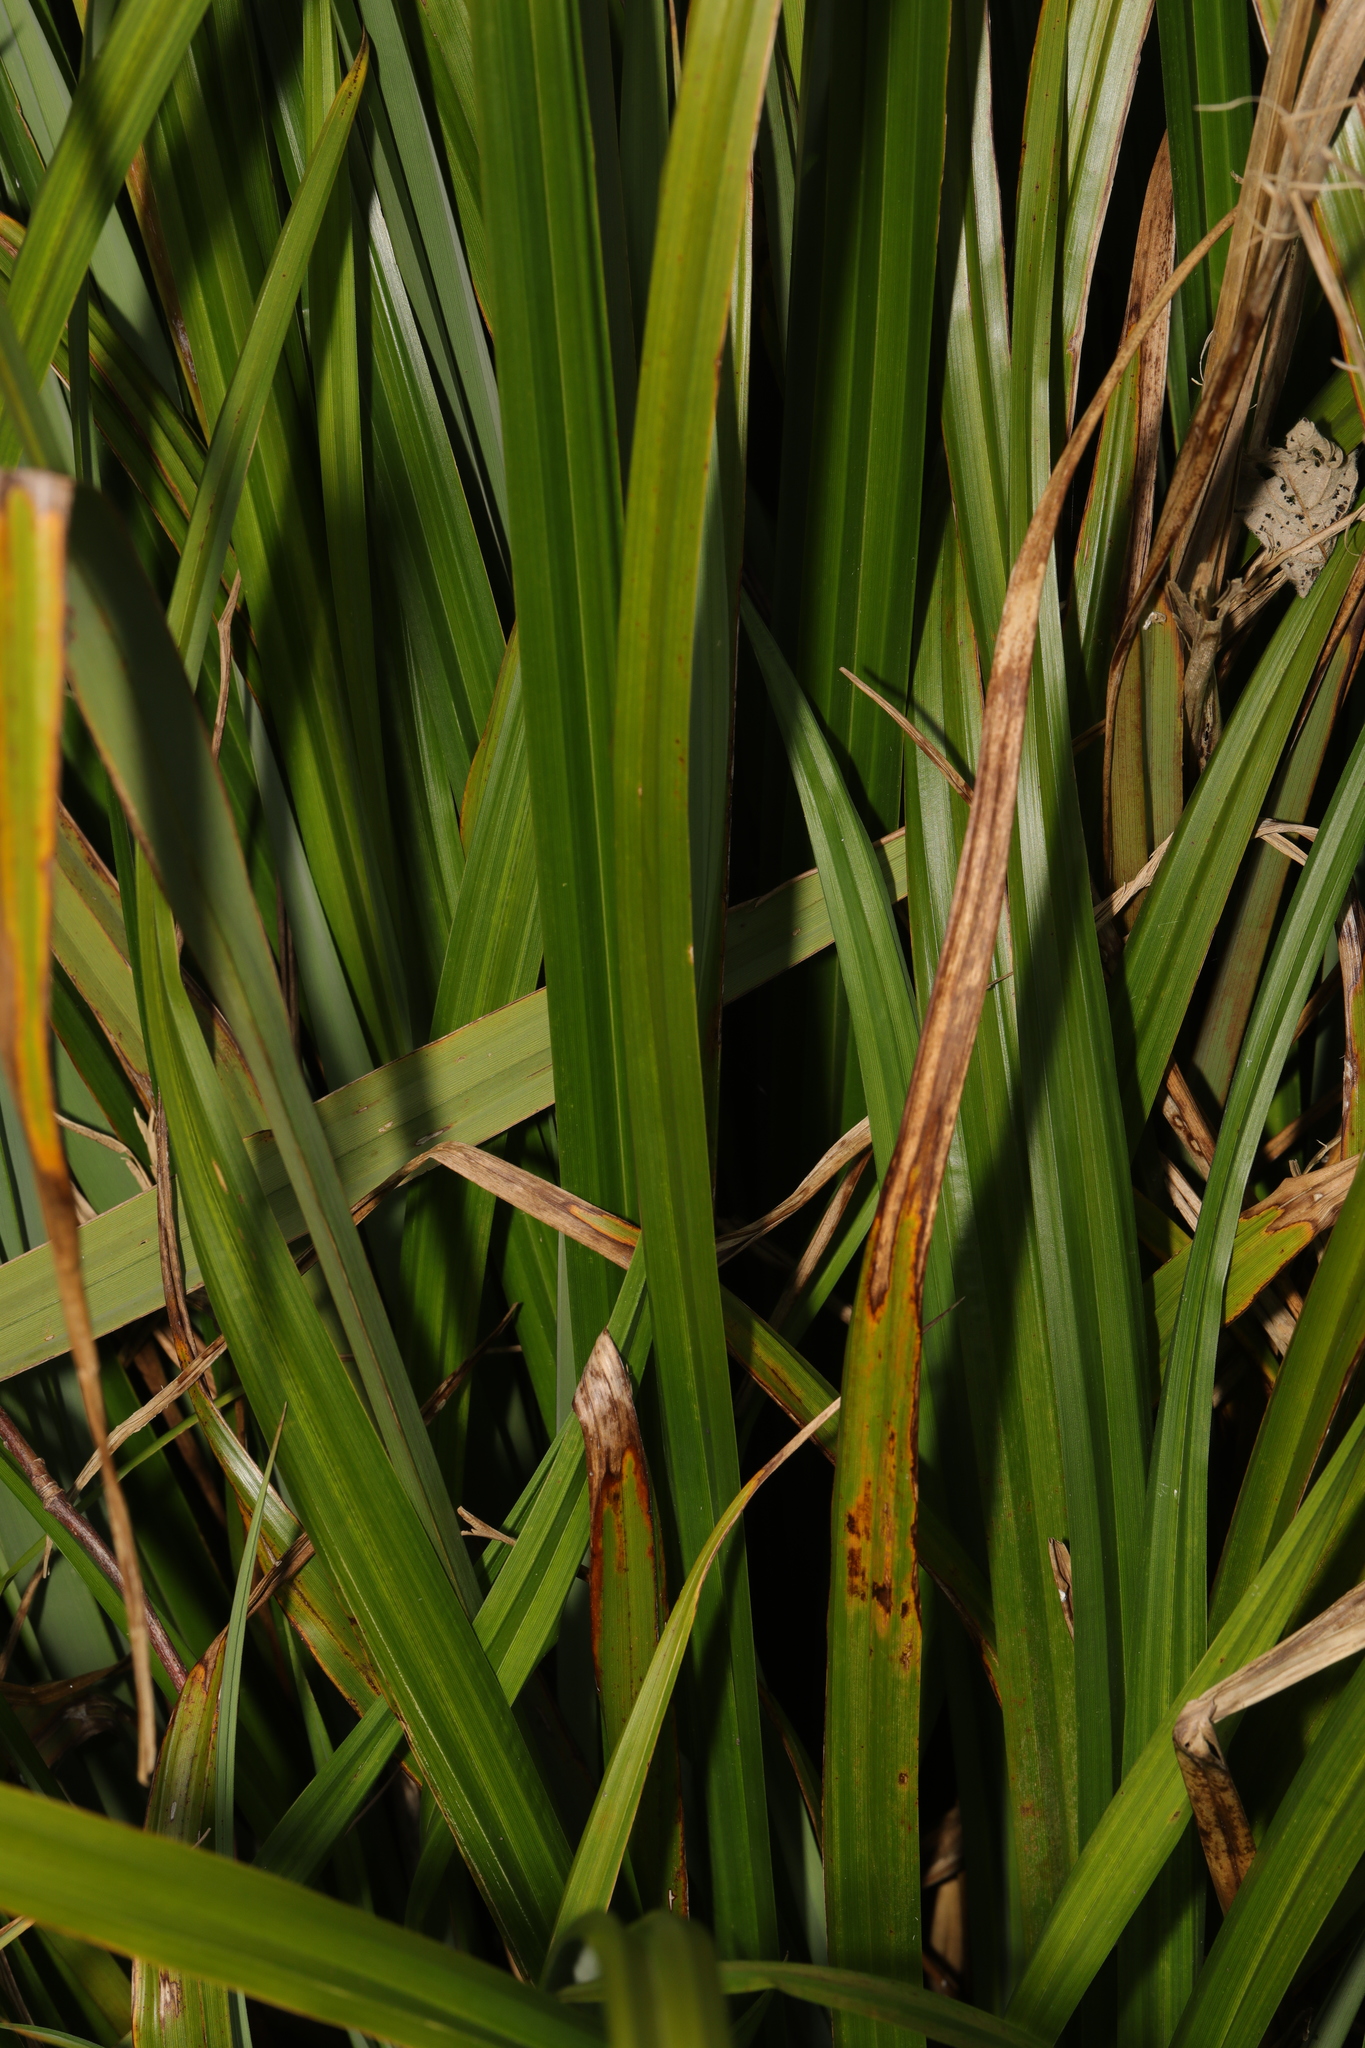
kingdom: Plantae
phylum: Tracheophyta
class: Liliopsida
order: Poales
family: Cyperaceae
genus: Carex
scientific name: Carex pendula
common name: Pendulous sedge
